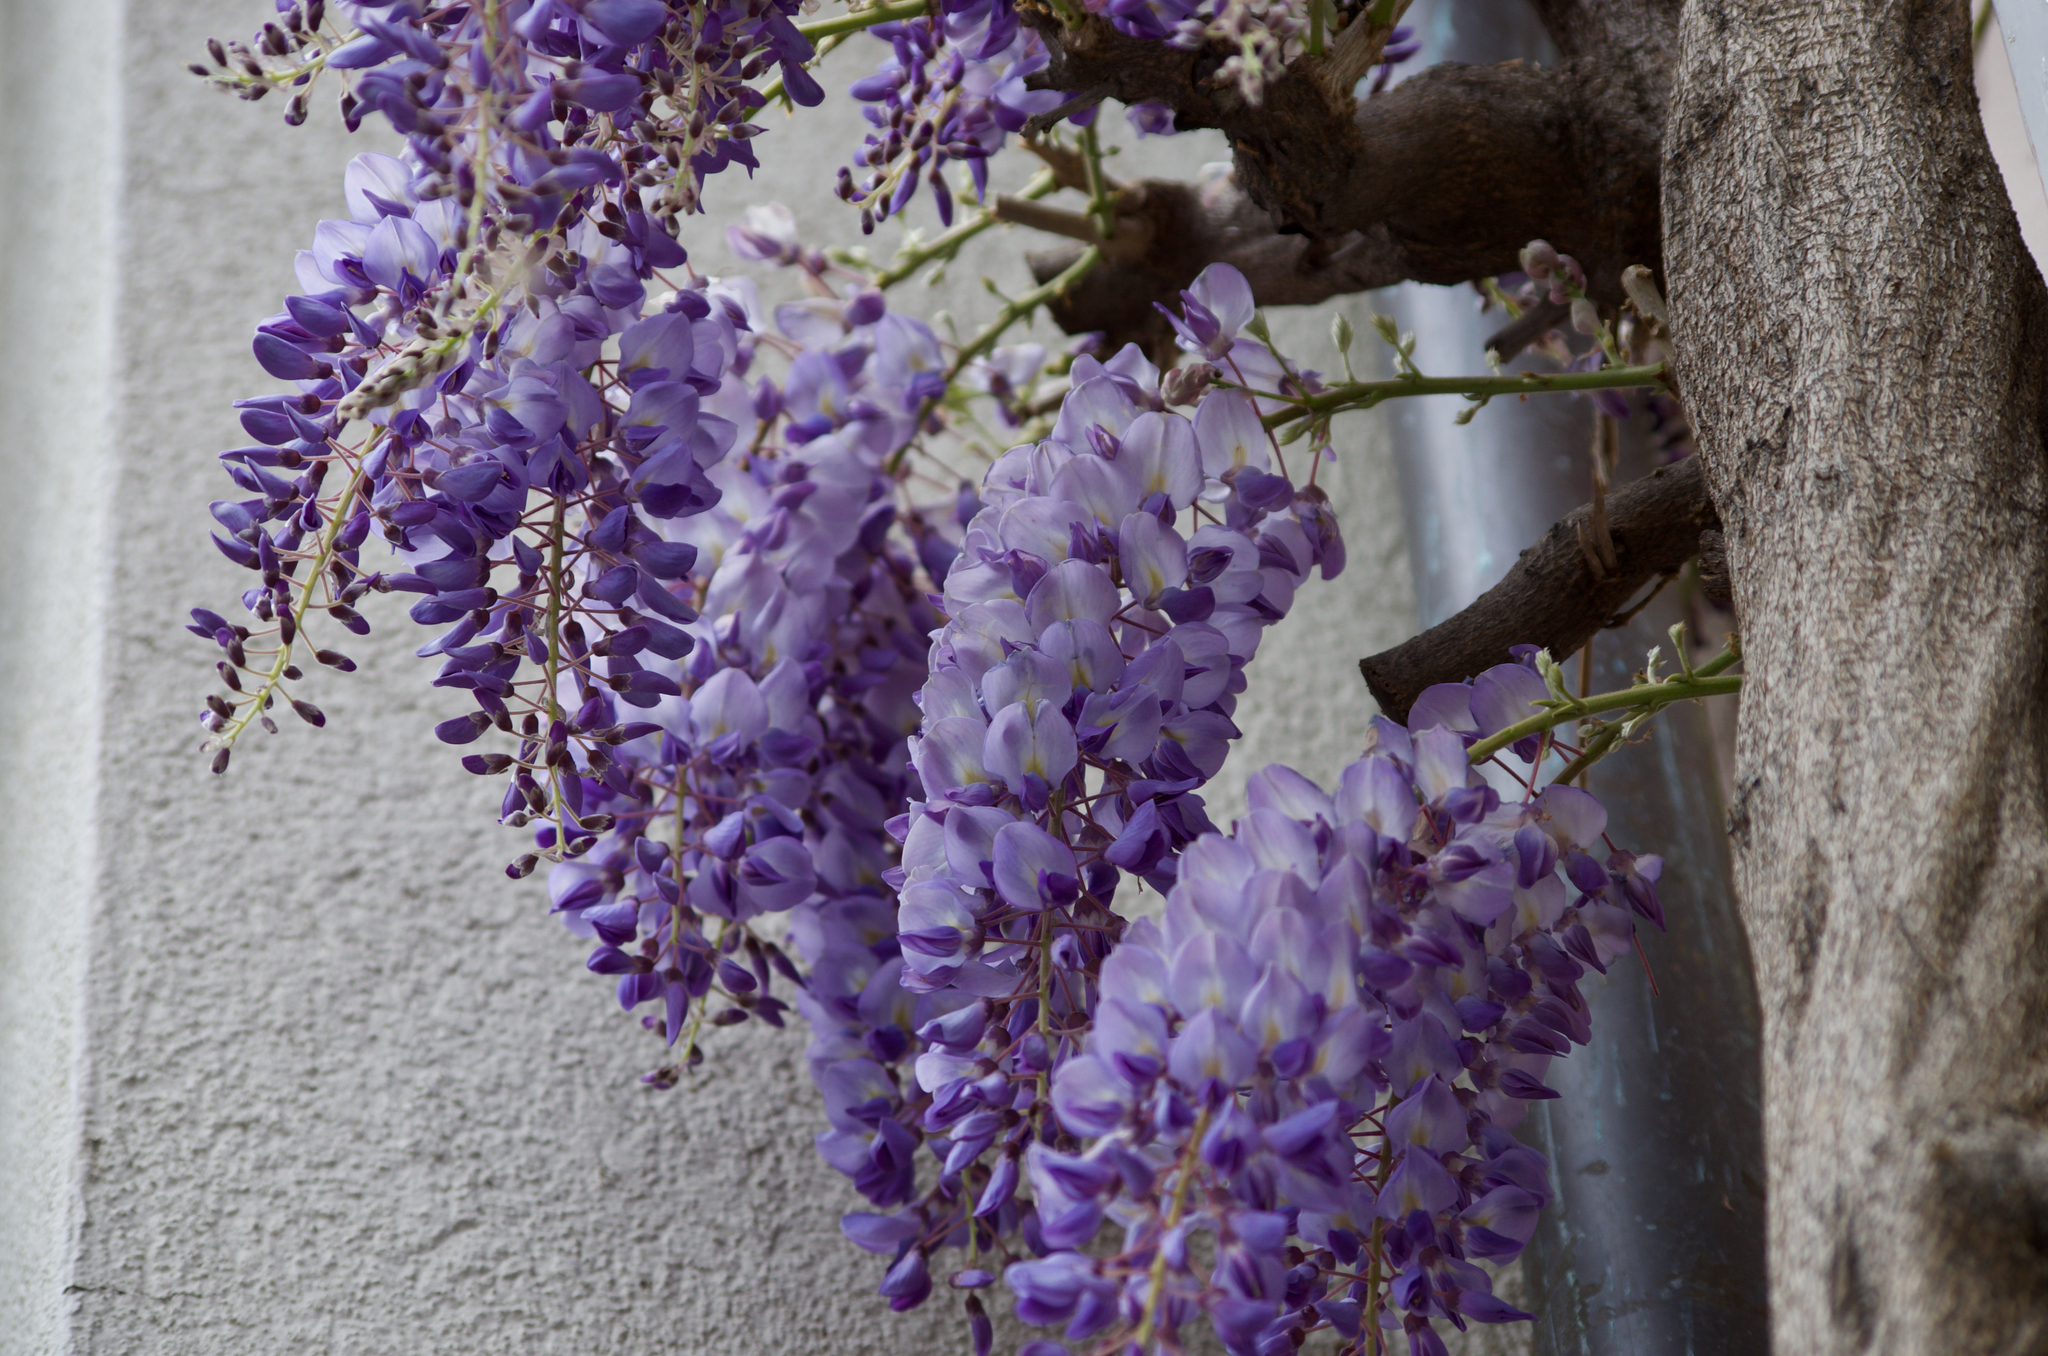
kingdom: Plantae
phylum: Tracheophyta
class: Magnoliopsida
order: Fabales
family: Fabaceae
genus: Wisteria
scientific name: Wisteria sinensis
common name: Chinese wisteria
